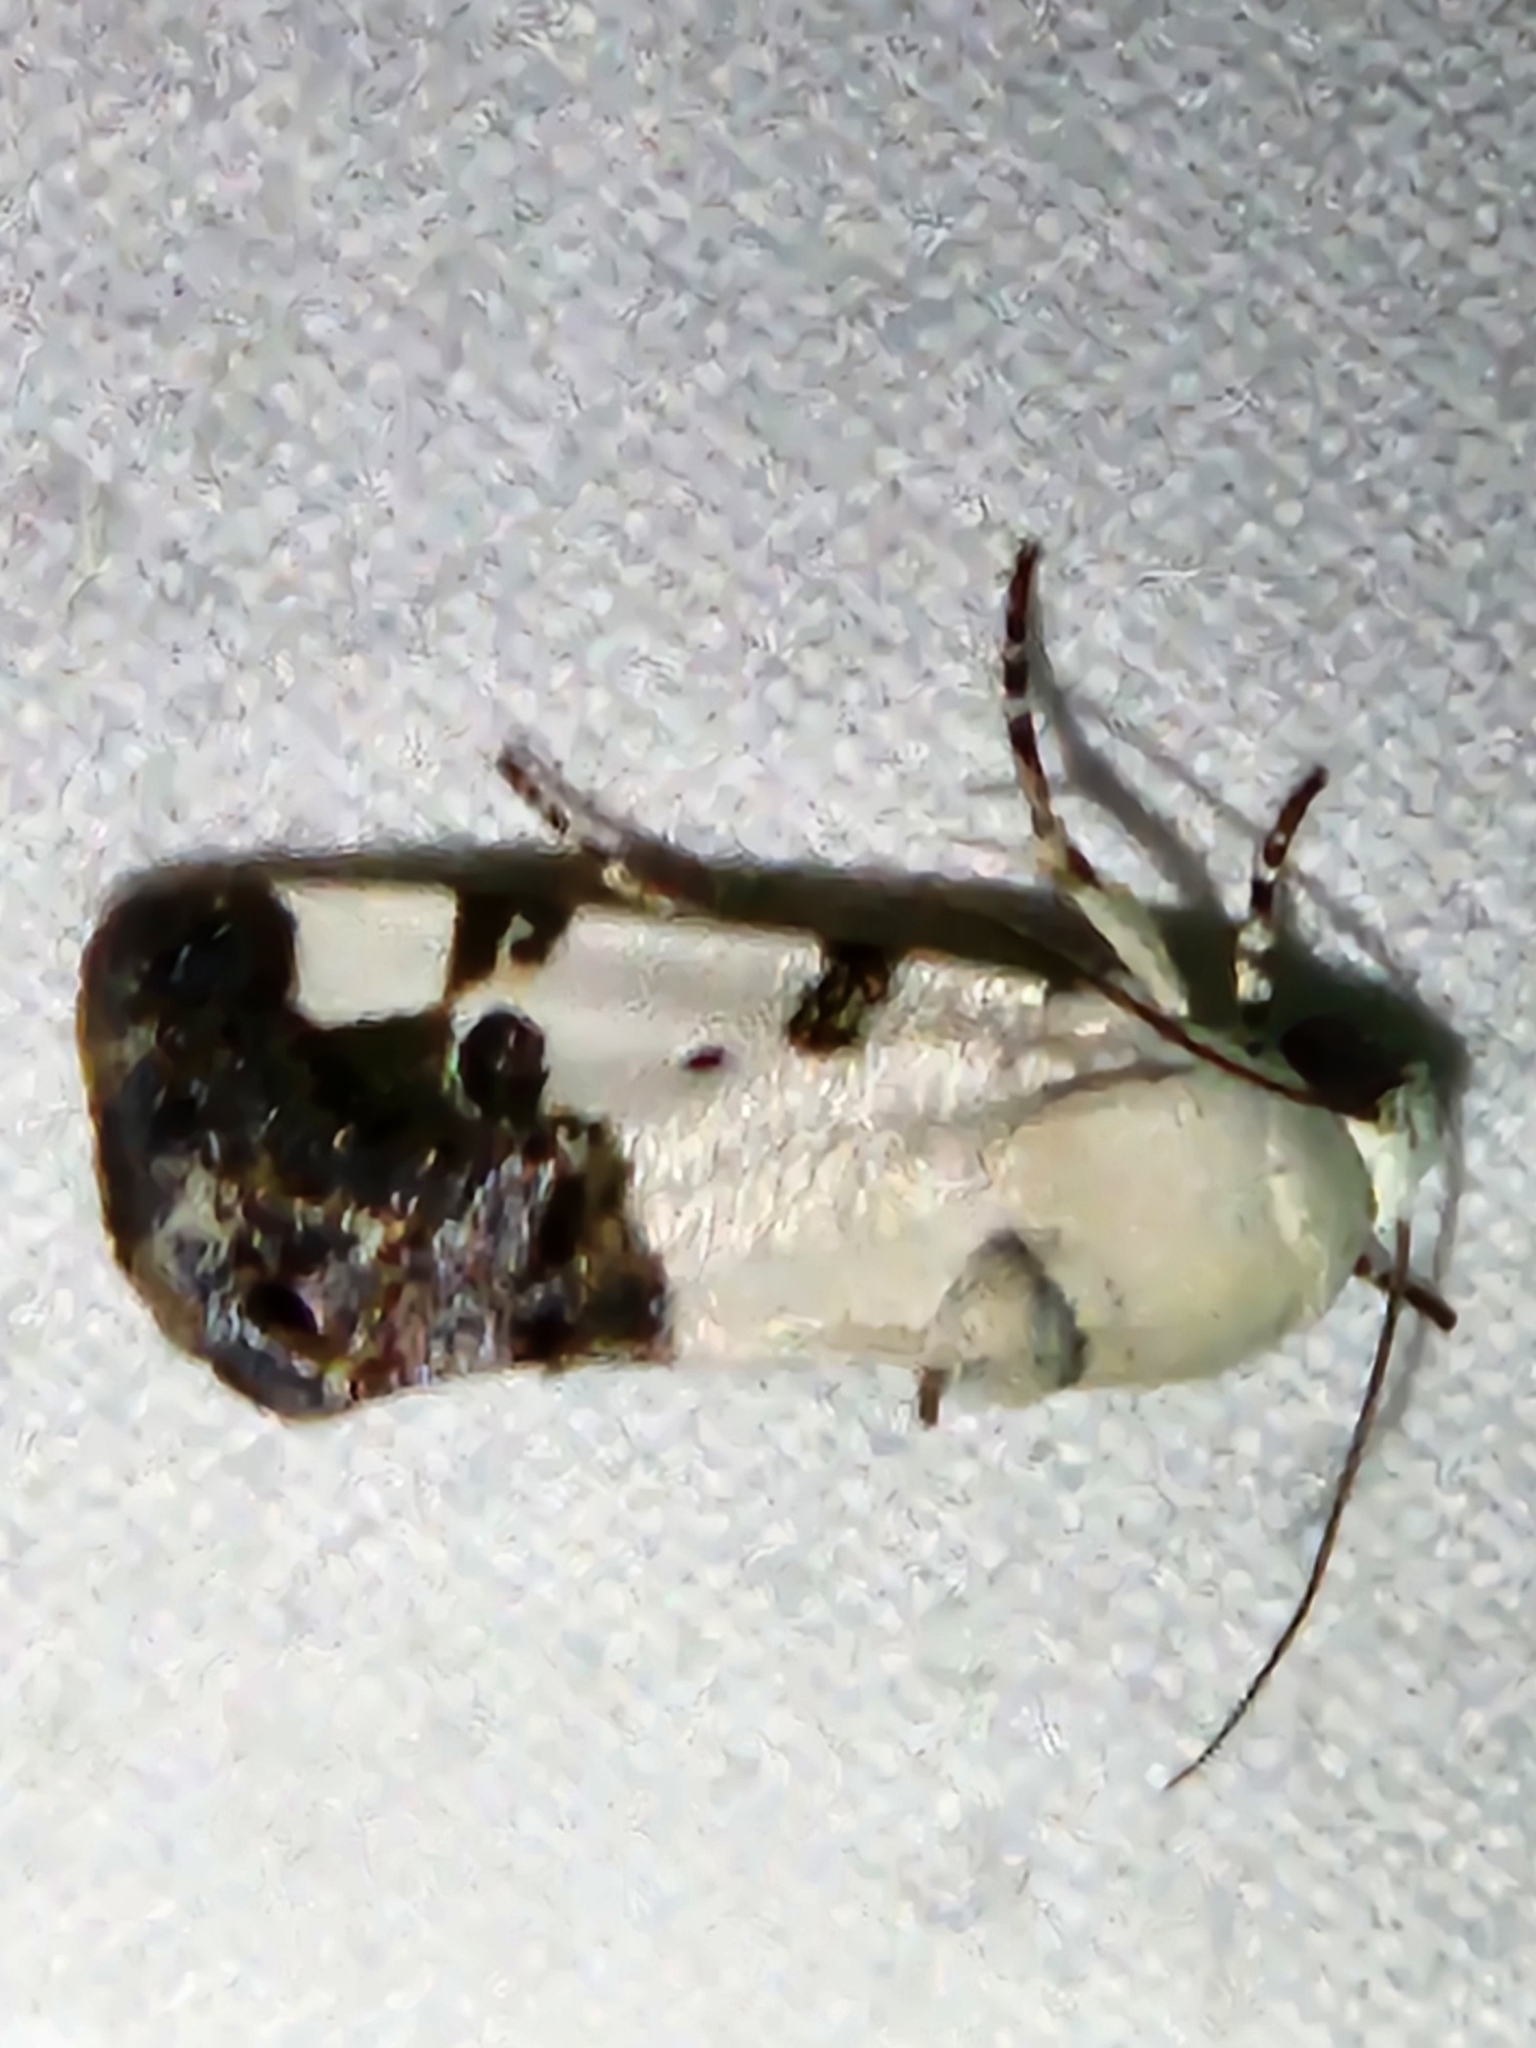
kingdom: Animalia
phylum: Arthropoda
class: Insecta
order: Lepidoptera
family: Noctuidae
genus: Acontia
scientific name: Acontia aprica
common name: Nun
